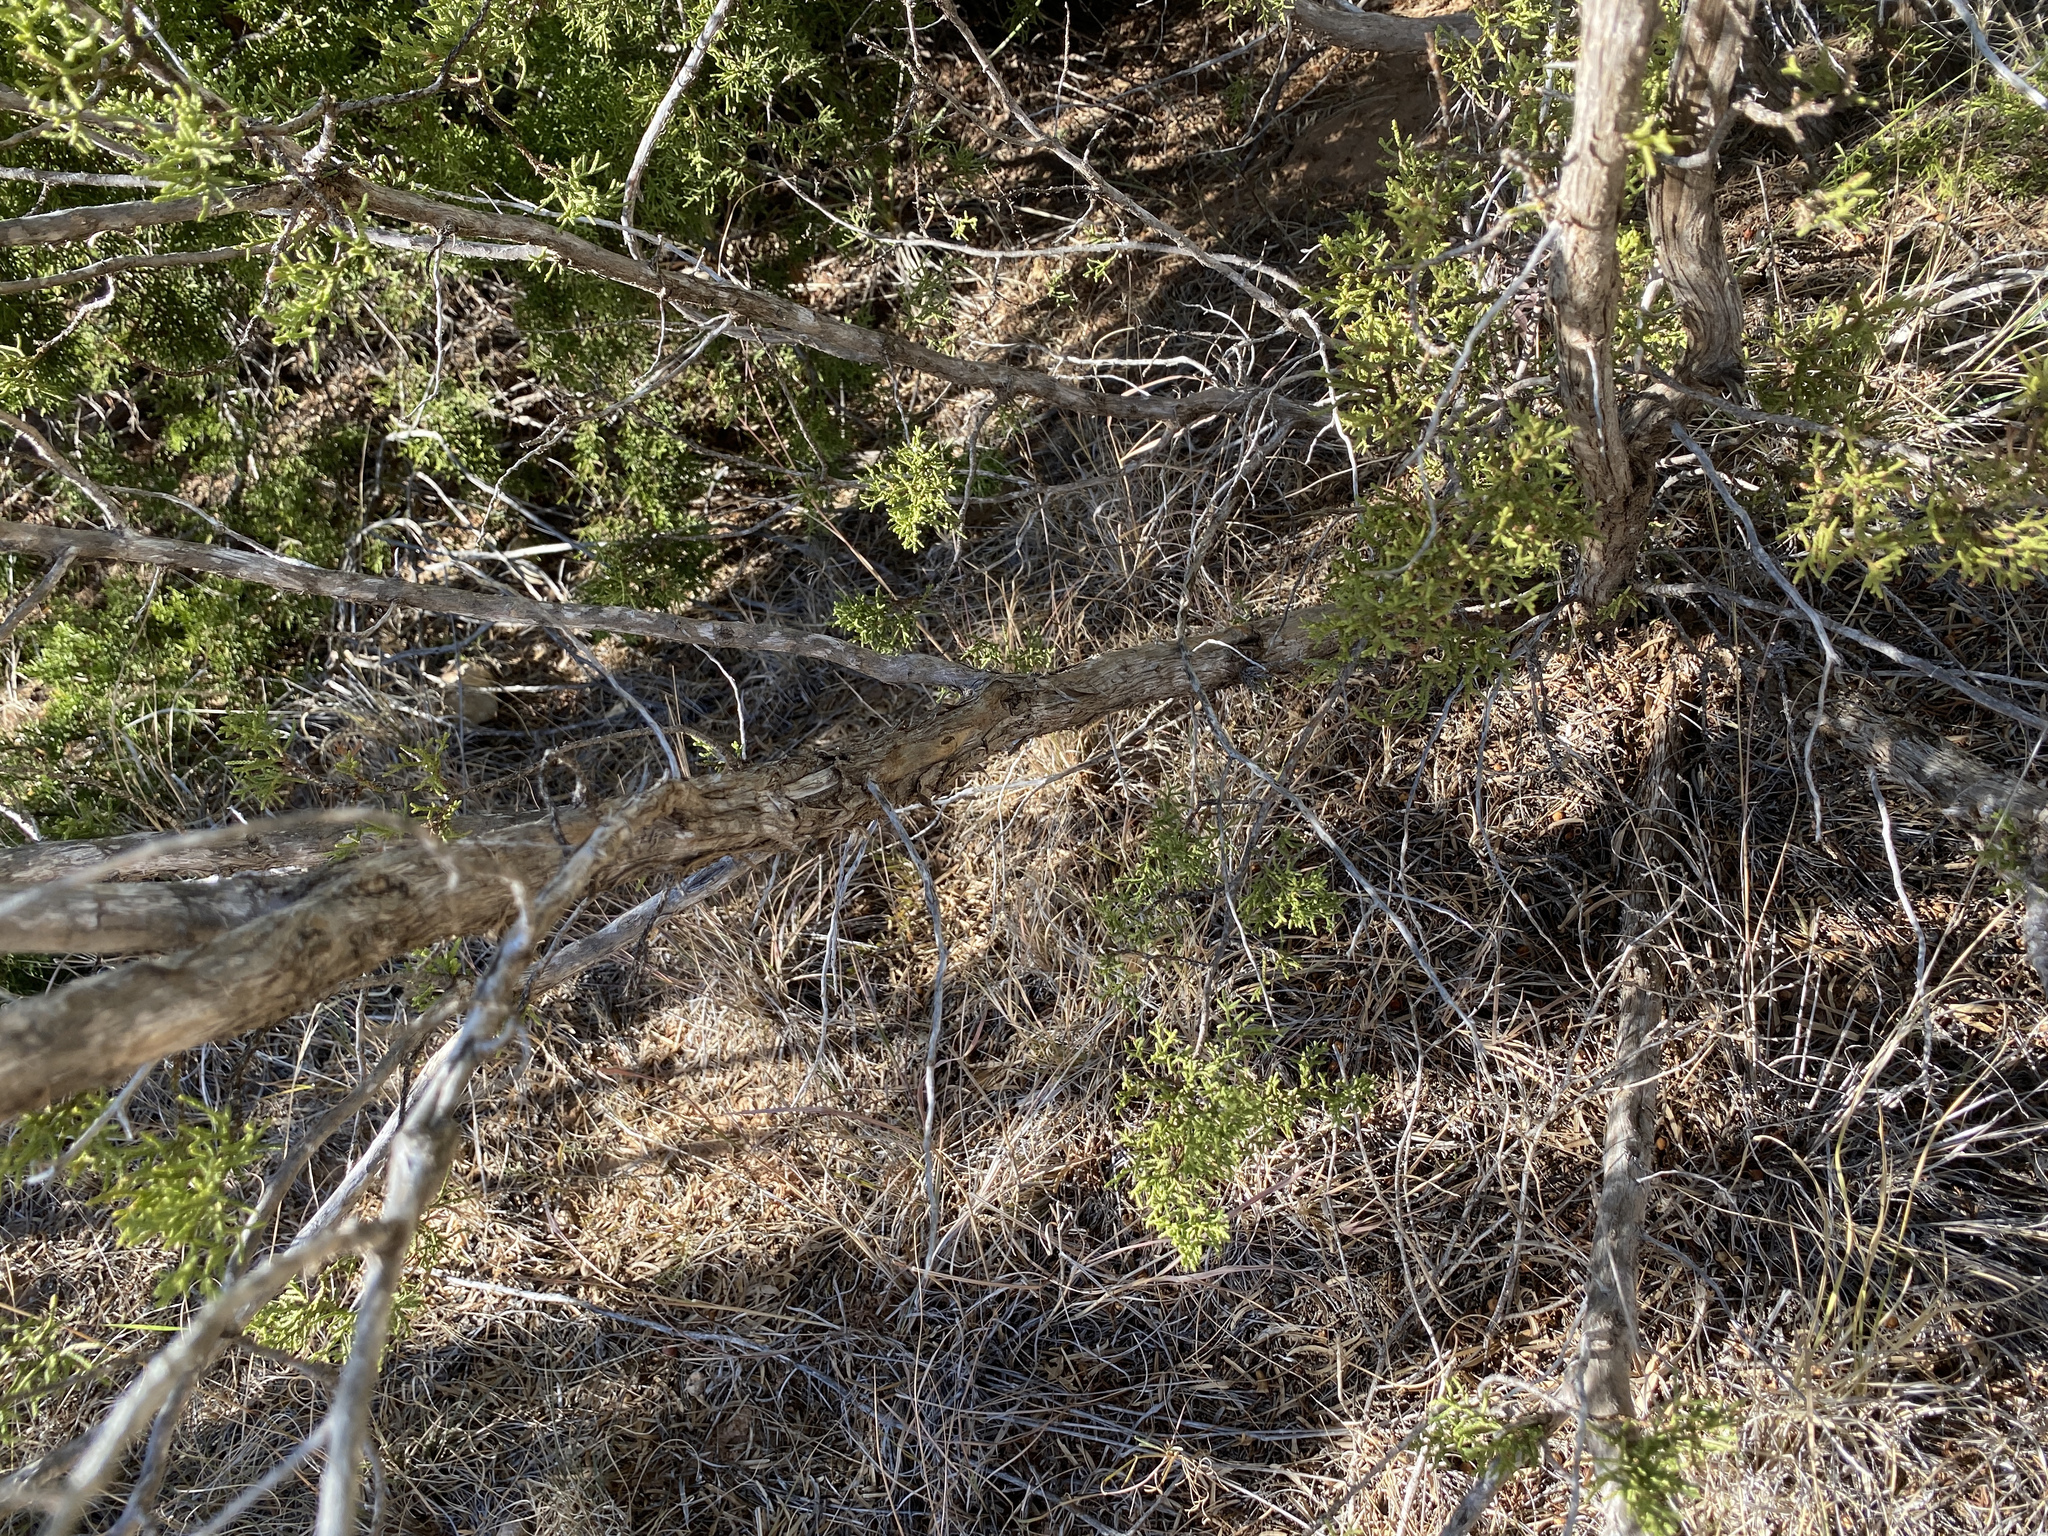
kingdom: Plantae
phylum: Tracheophyta
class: Pinopsida
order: Pinales
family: Cupressaceae
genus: Juniperus
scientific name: Juniperus pinchotii
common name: Pinchot juniper
